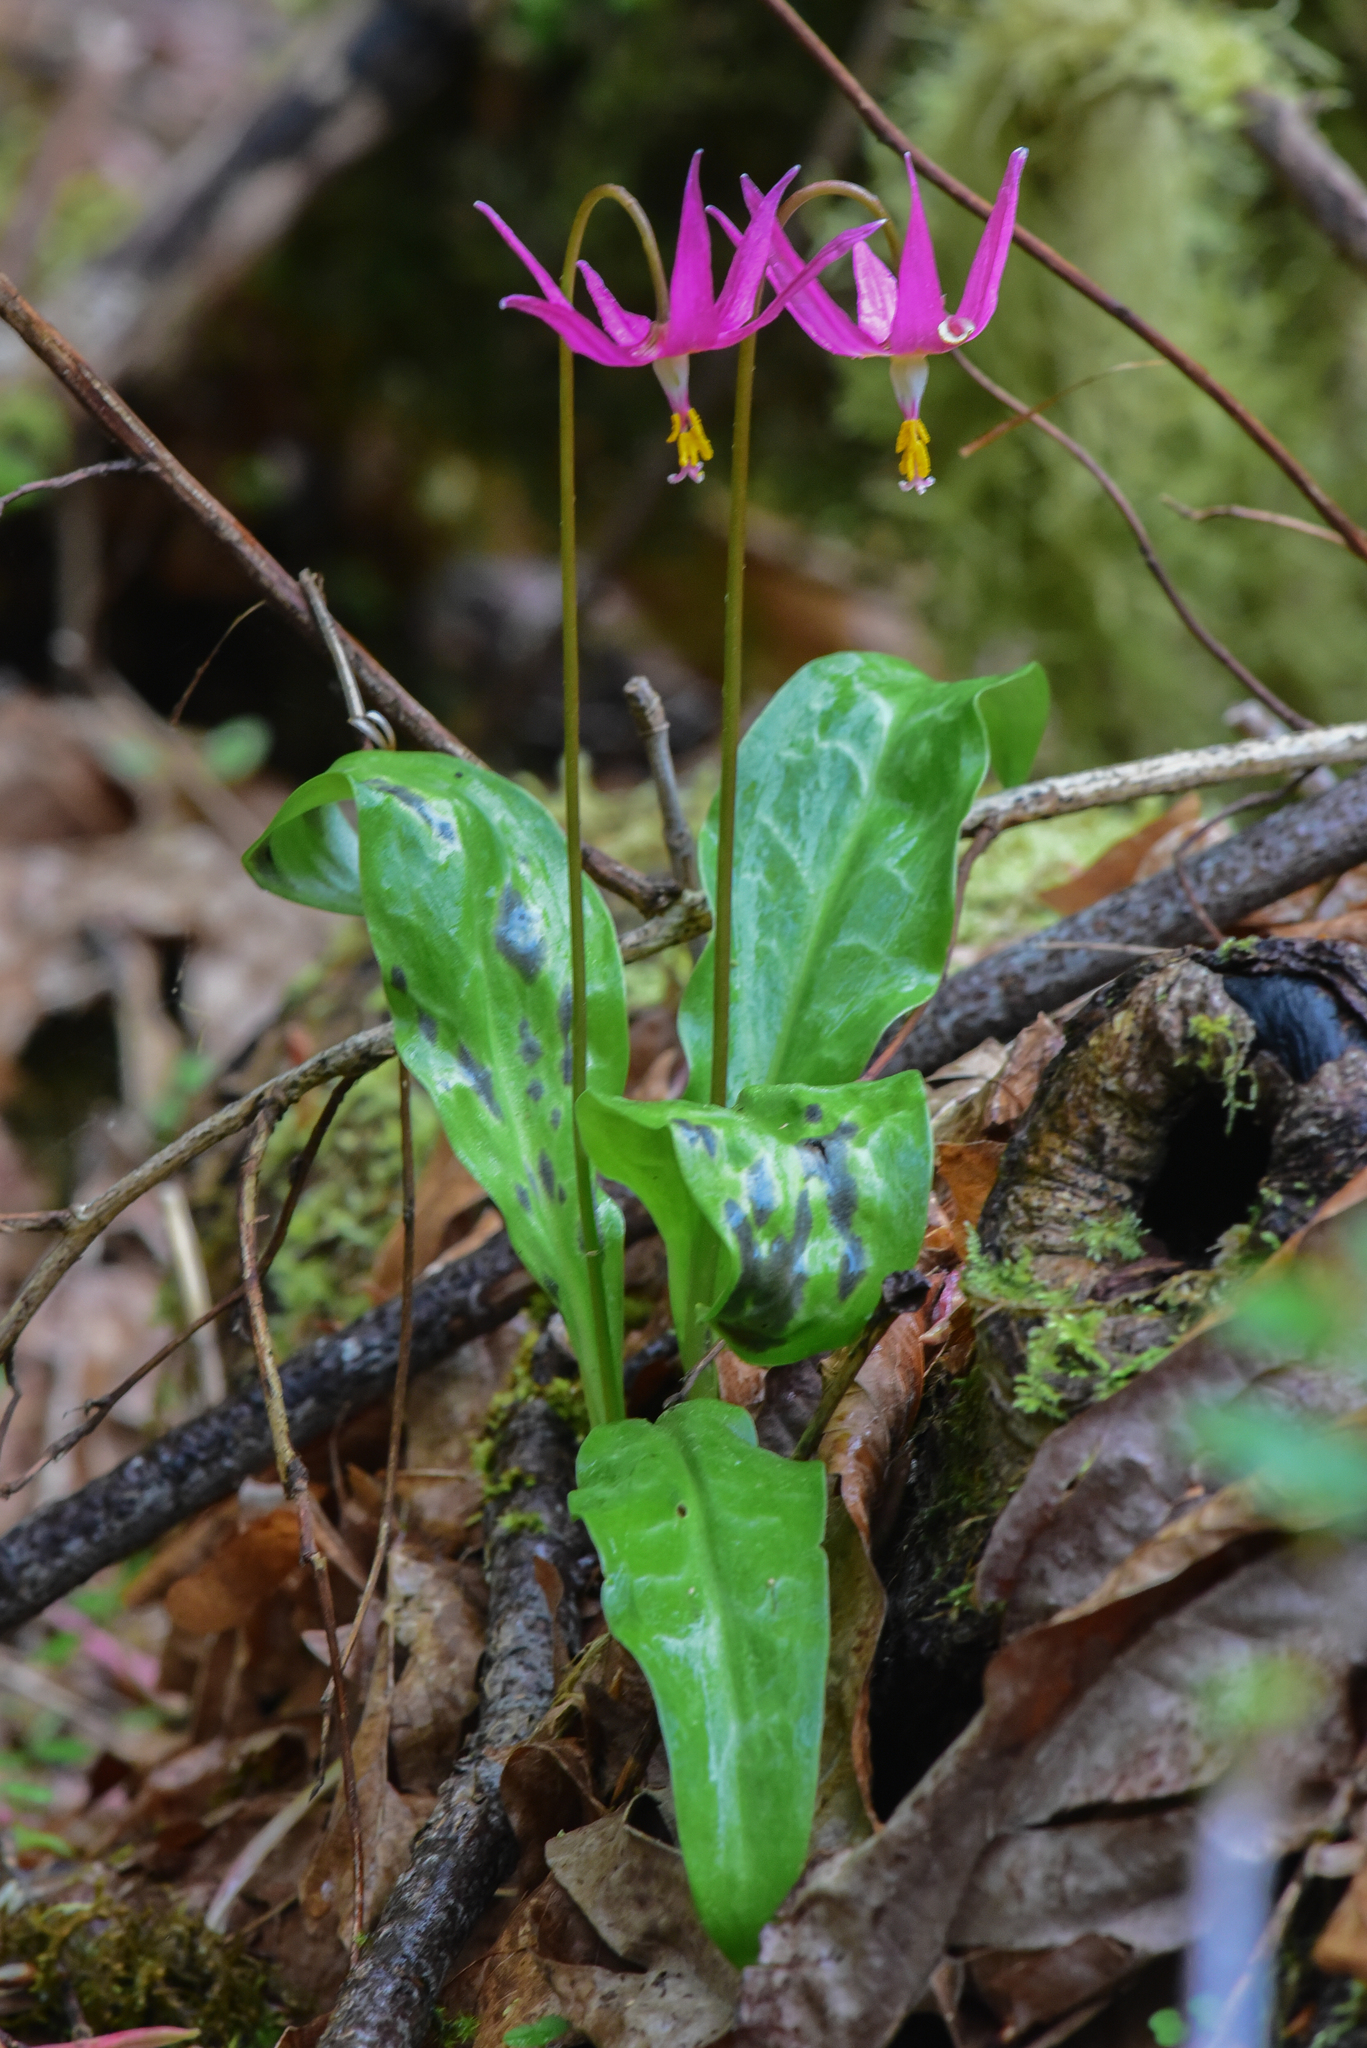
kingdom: Plantae
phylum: Tracheophyta
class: Liliopsida
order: Liliales
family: Liliaceae
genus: Erythronium
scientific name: Erythronium revolutum
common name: Pink fawn-lily
